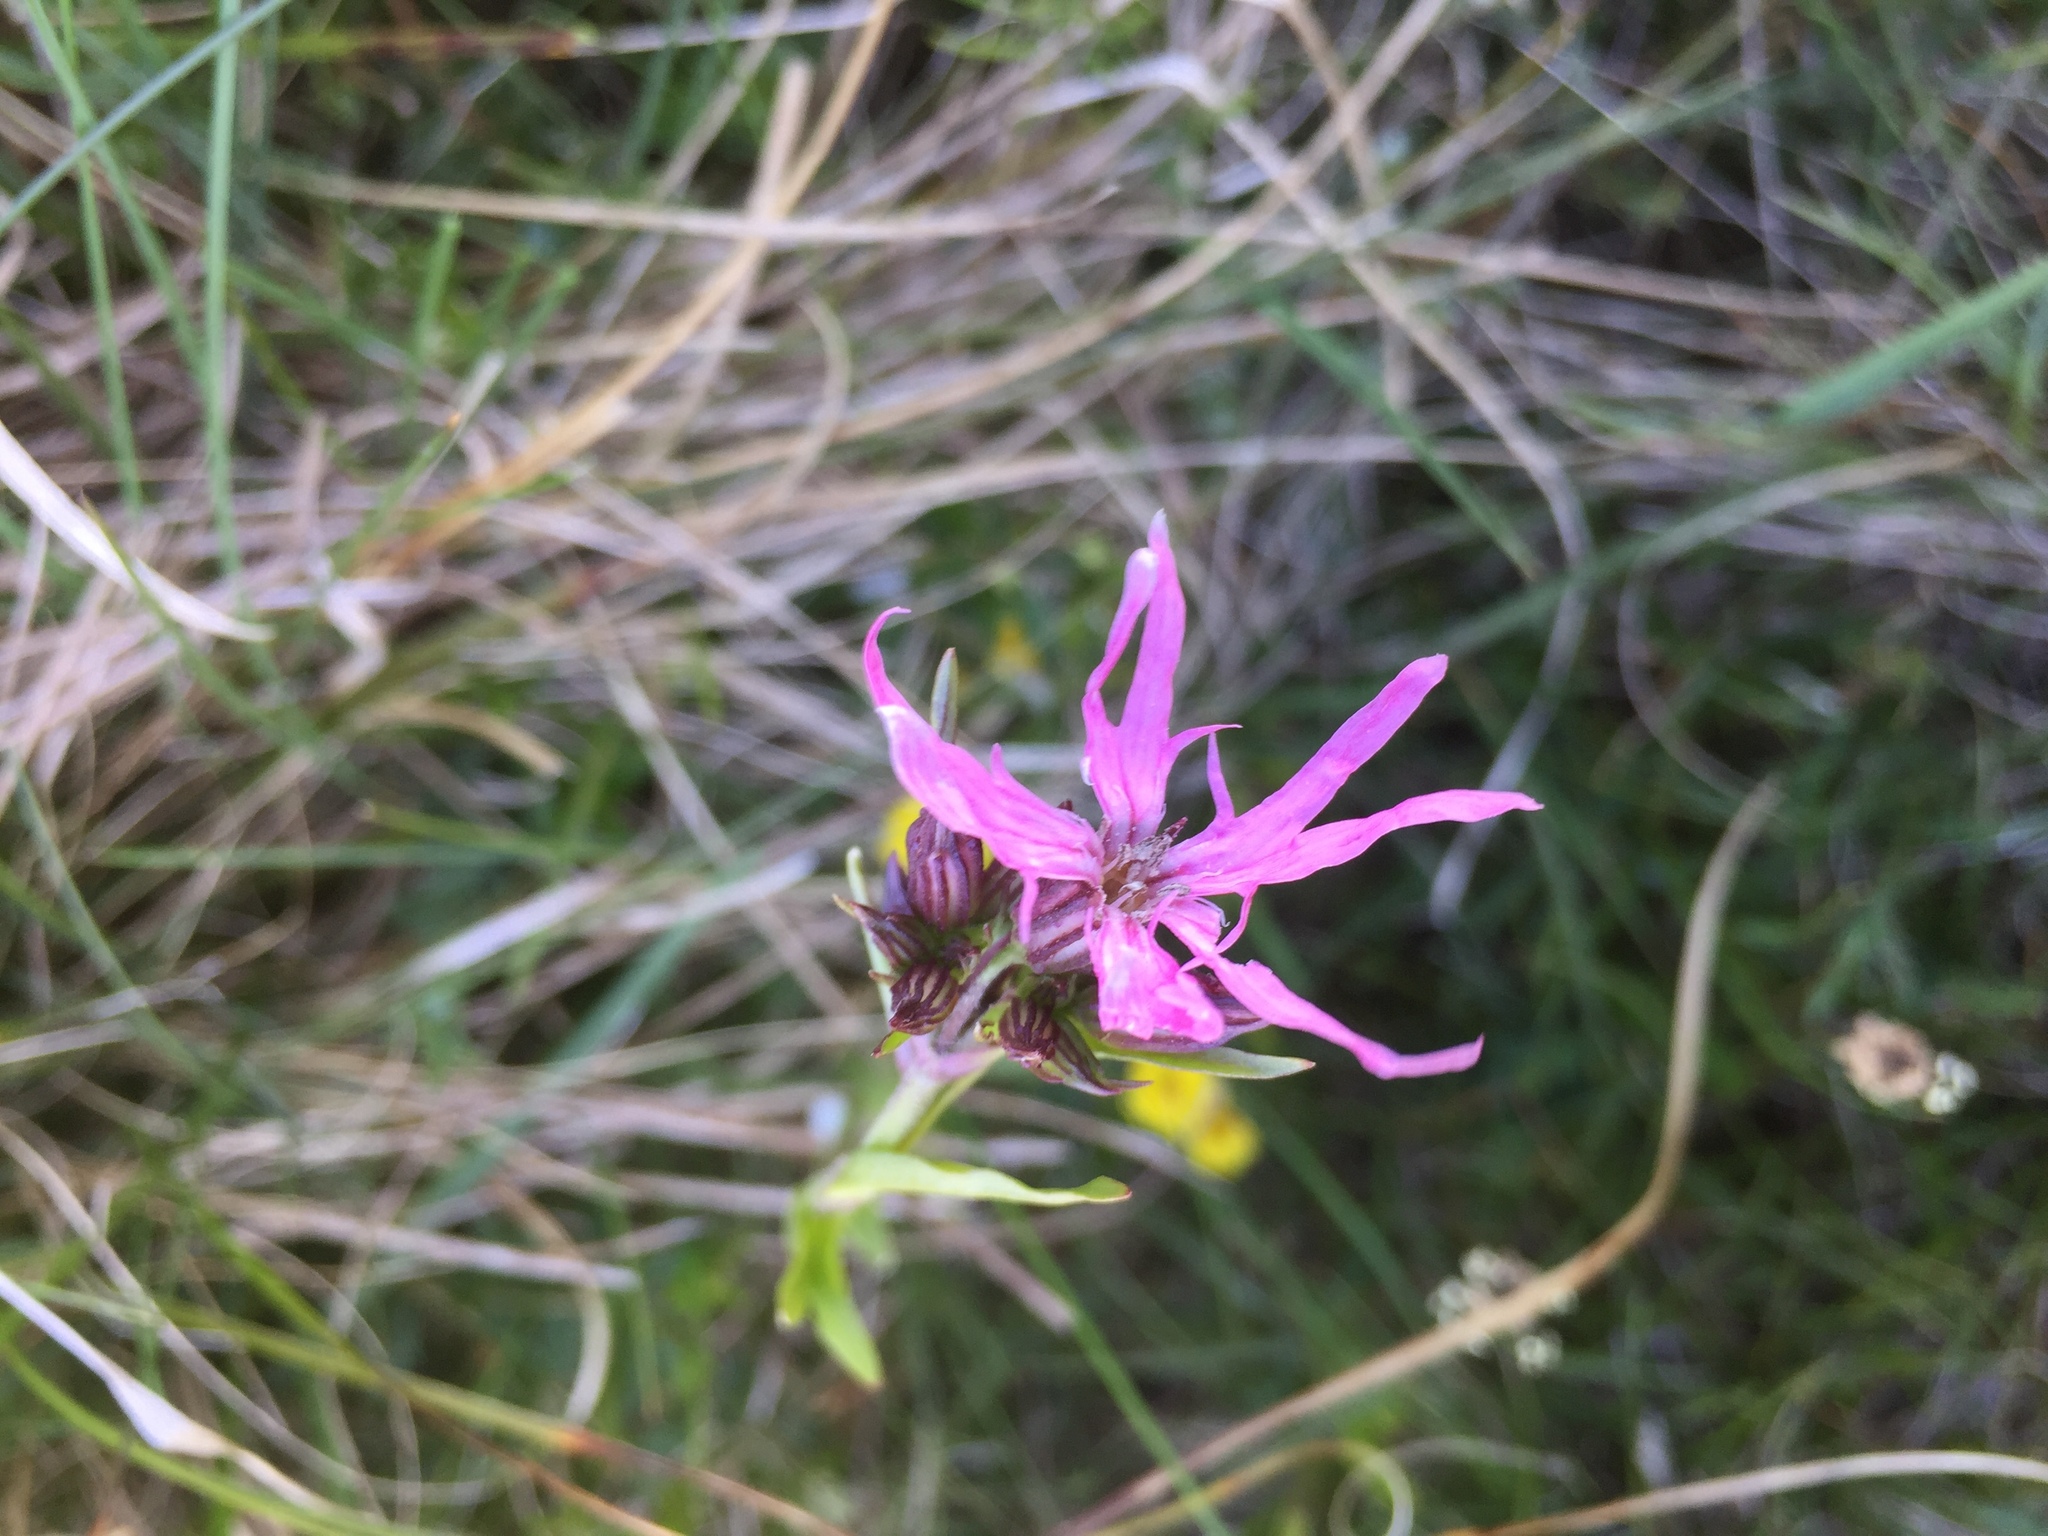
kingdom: Plantae
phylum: Tracheophyta
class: Magnoliopsida
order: Caryophyllales
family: Caryophyllaceae
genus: Silene
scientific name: Silene flos-cuculi
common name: Ragged-robin
